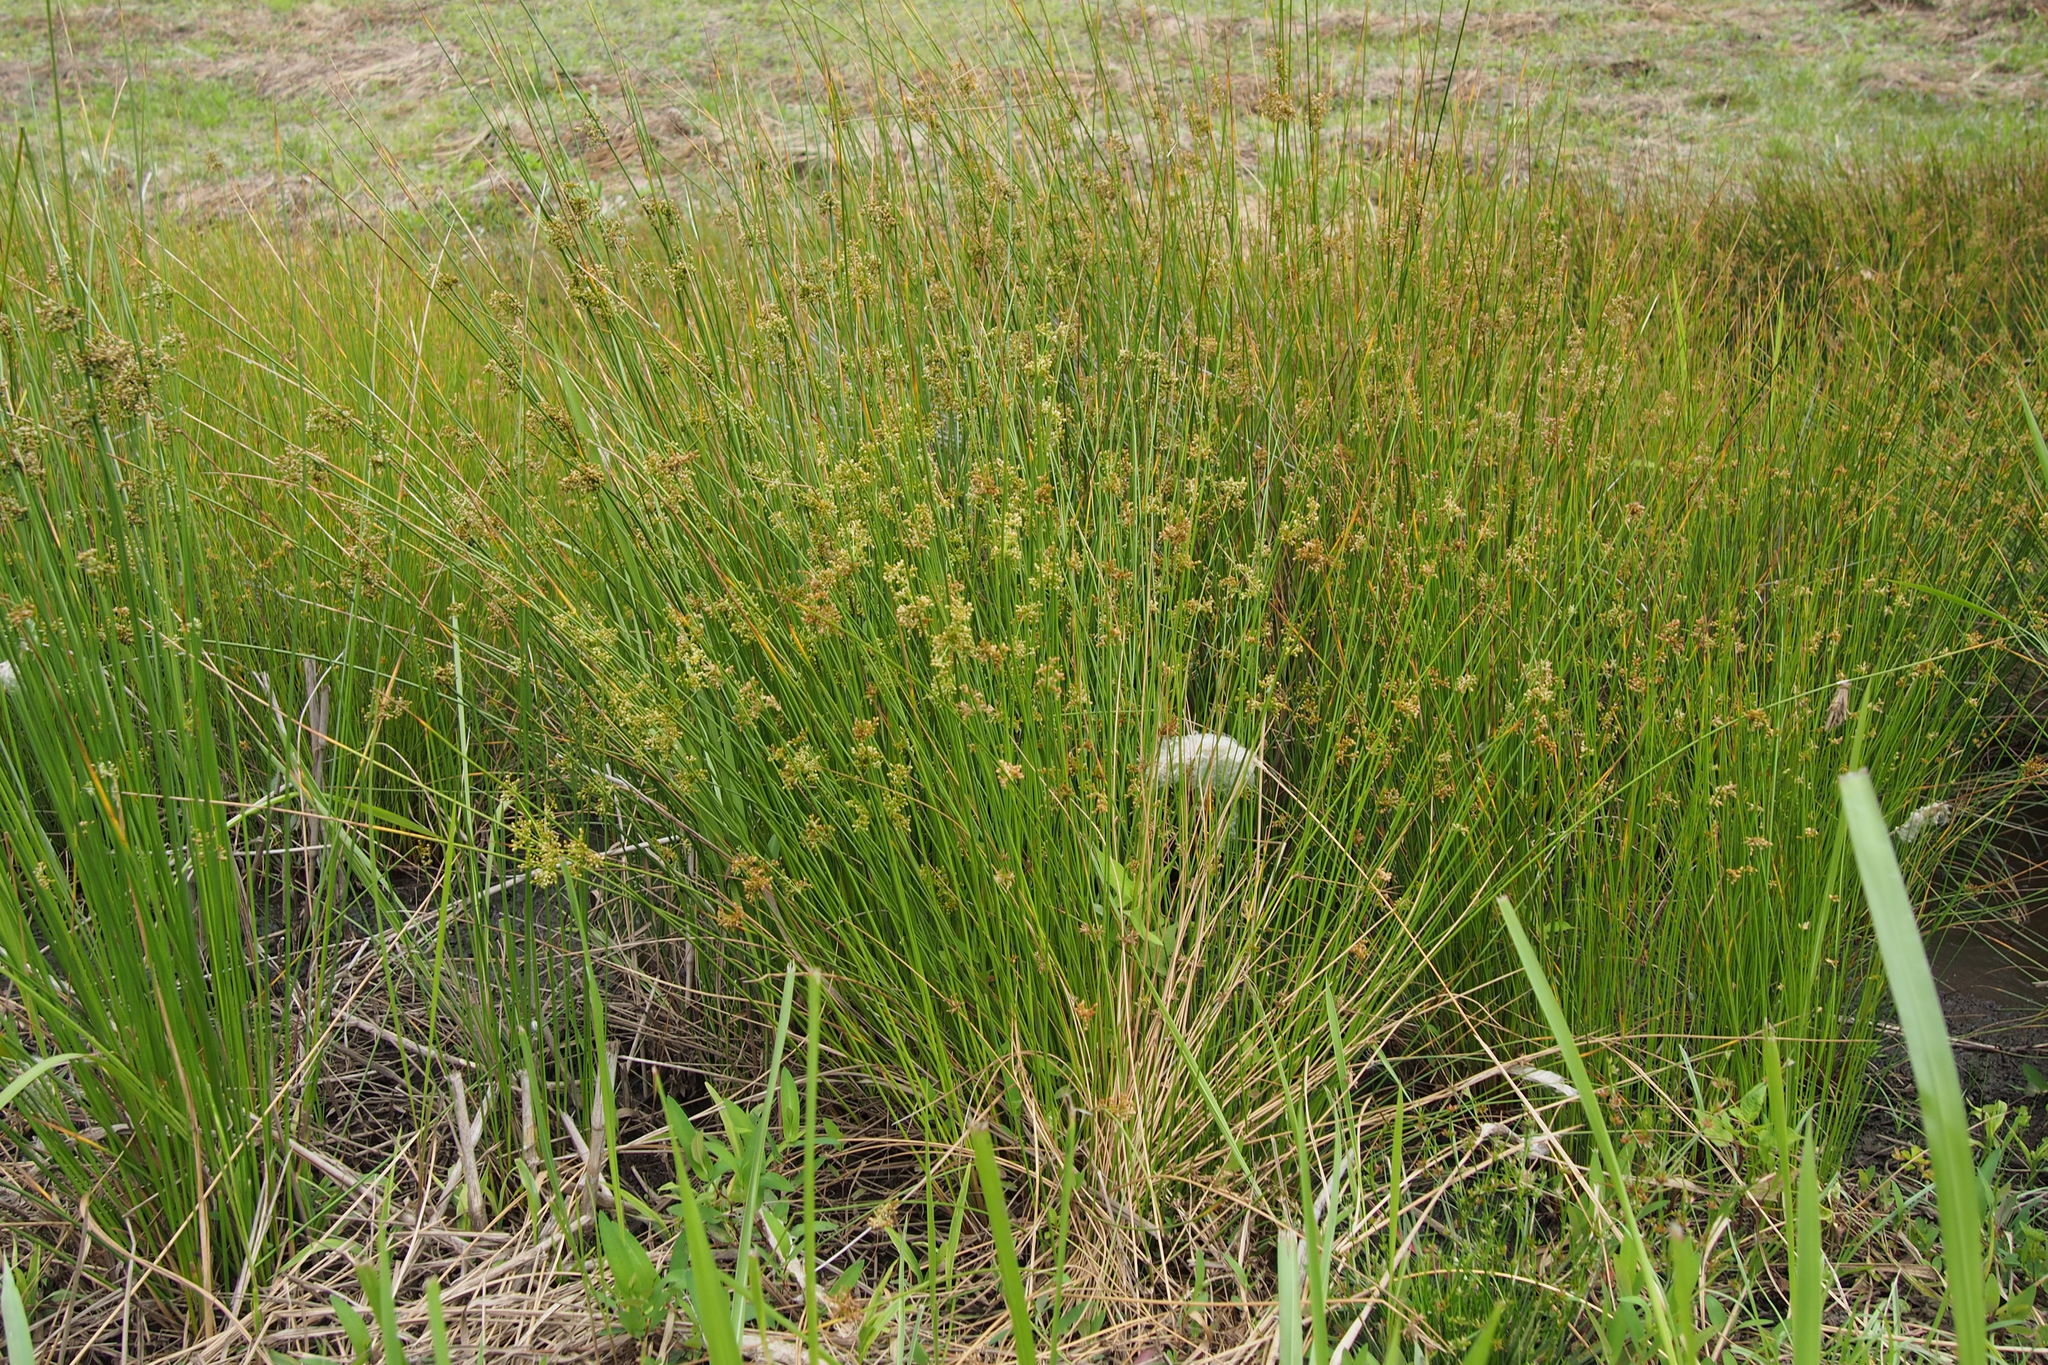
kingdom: Plantae
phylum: Tracheophyta
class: Liliopsida
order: Poales
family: Juncaceae
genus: Juncus
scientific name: Juncus decipiens
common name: Lamp rush
